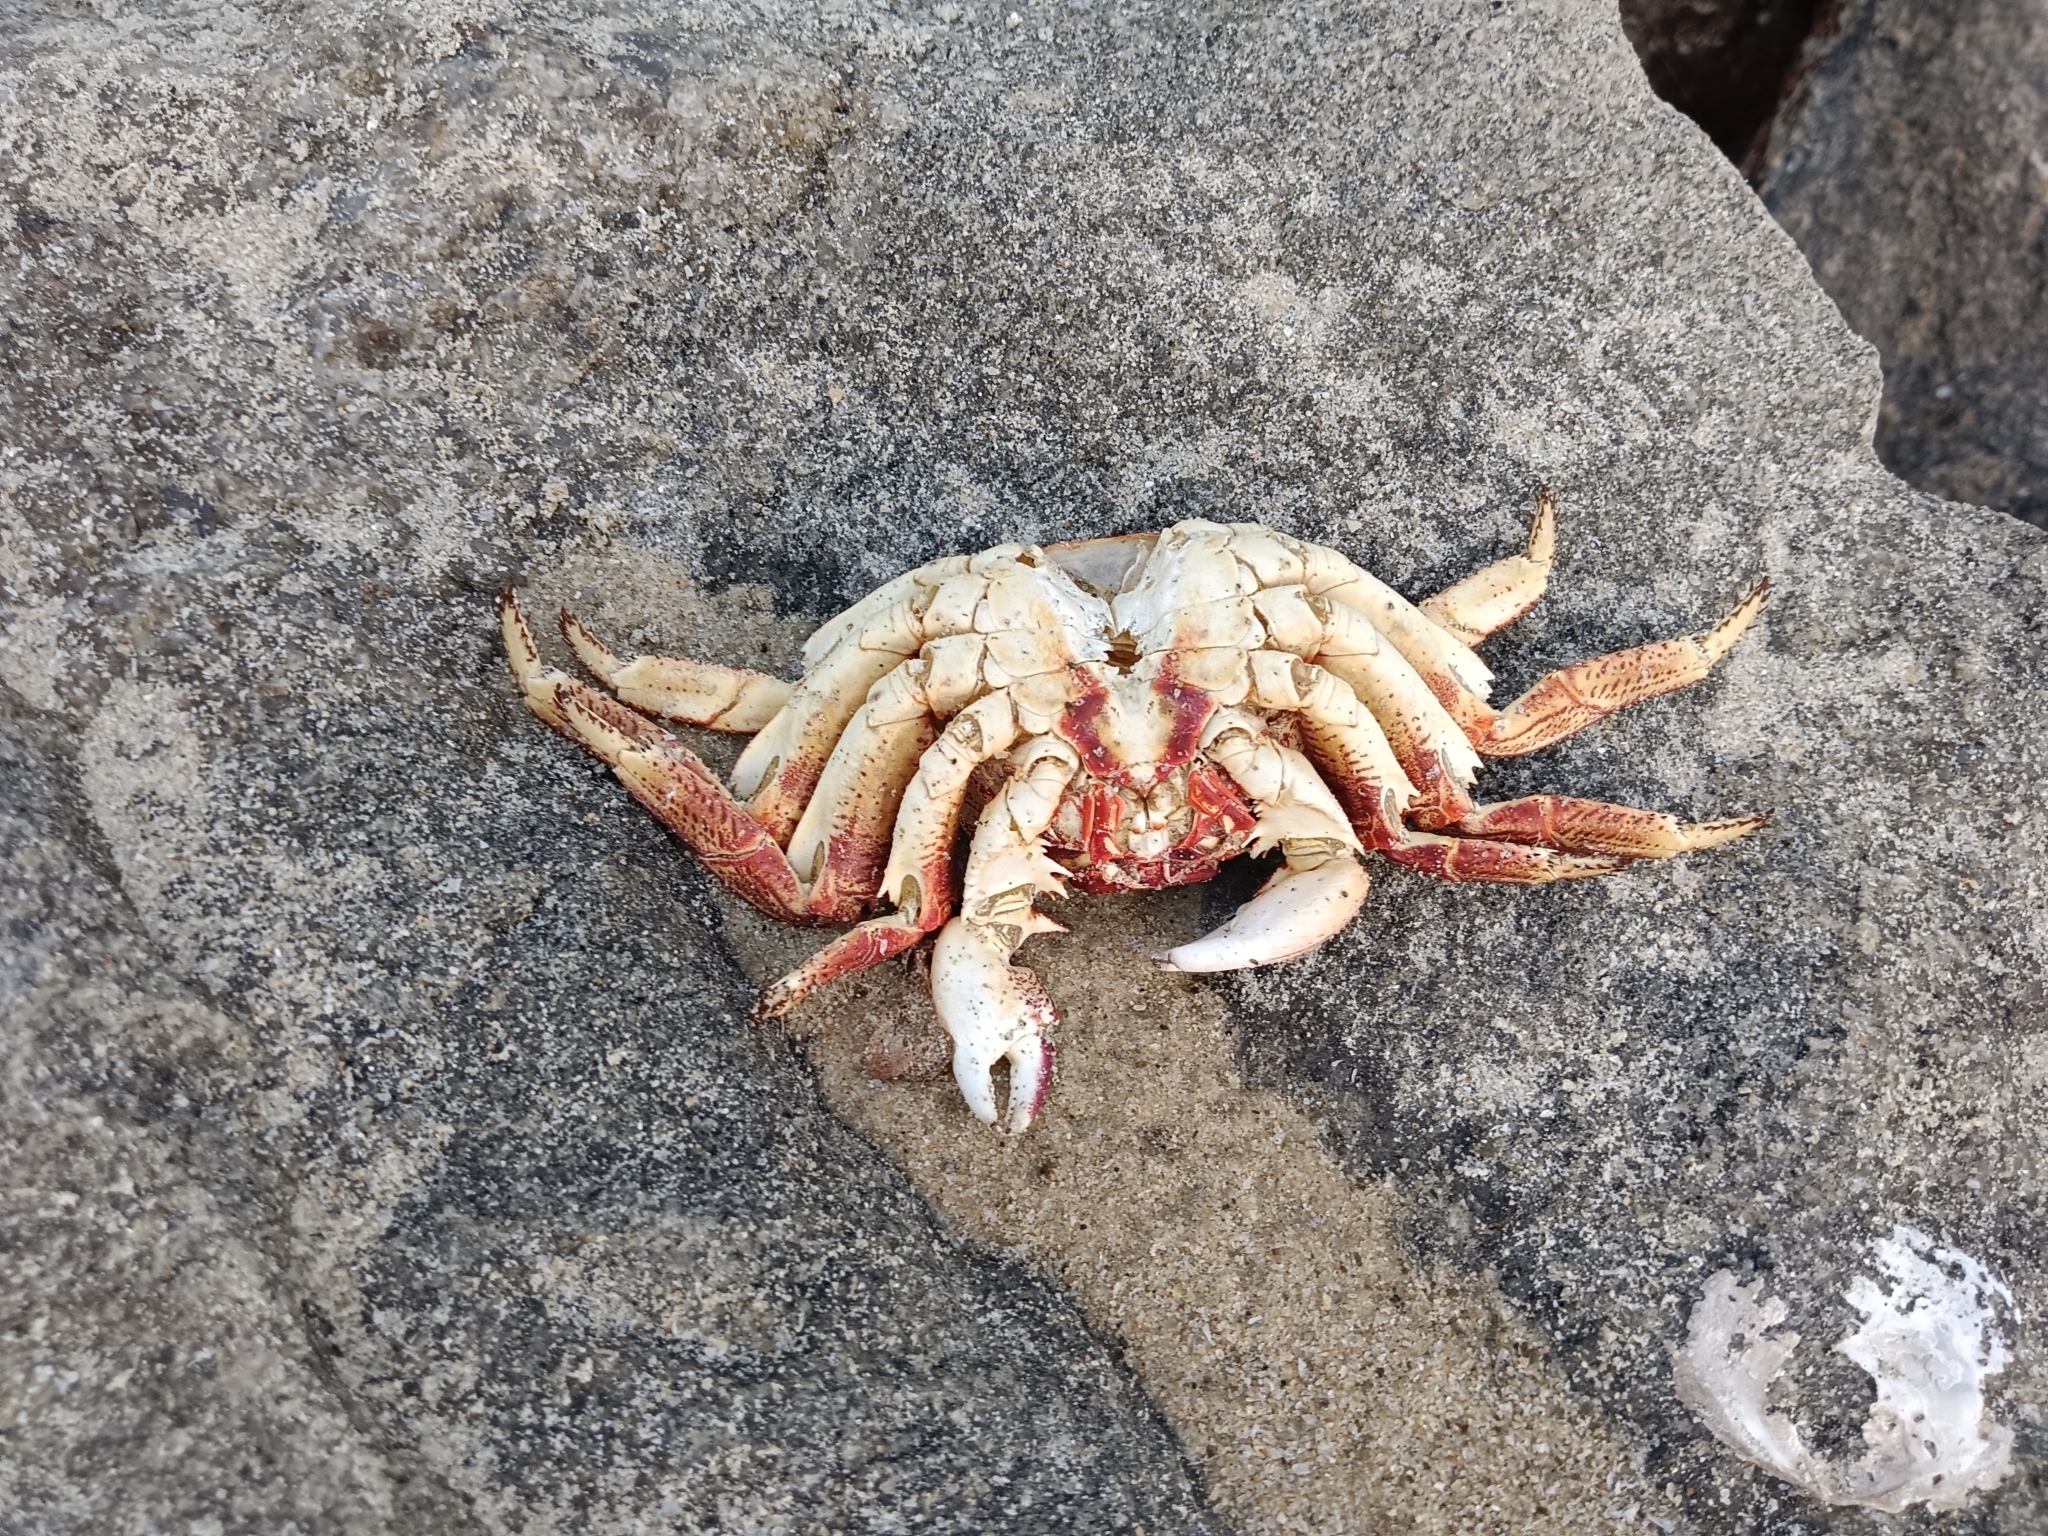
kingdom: Animalia
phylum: Arthropoda
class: Malacostraca
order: Decapoda
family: Grapsidae
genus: Grapsus
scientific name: Grapsus albolineatus
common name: Mottled lightfoot crab
